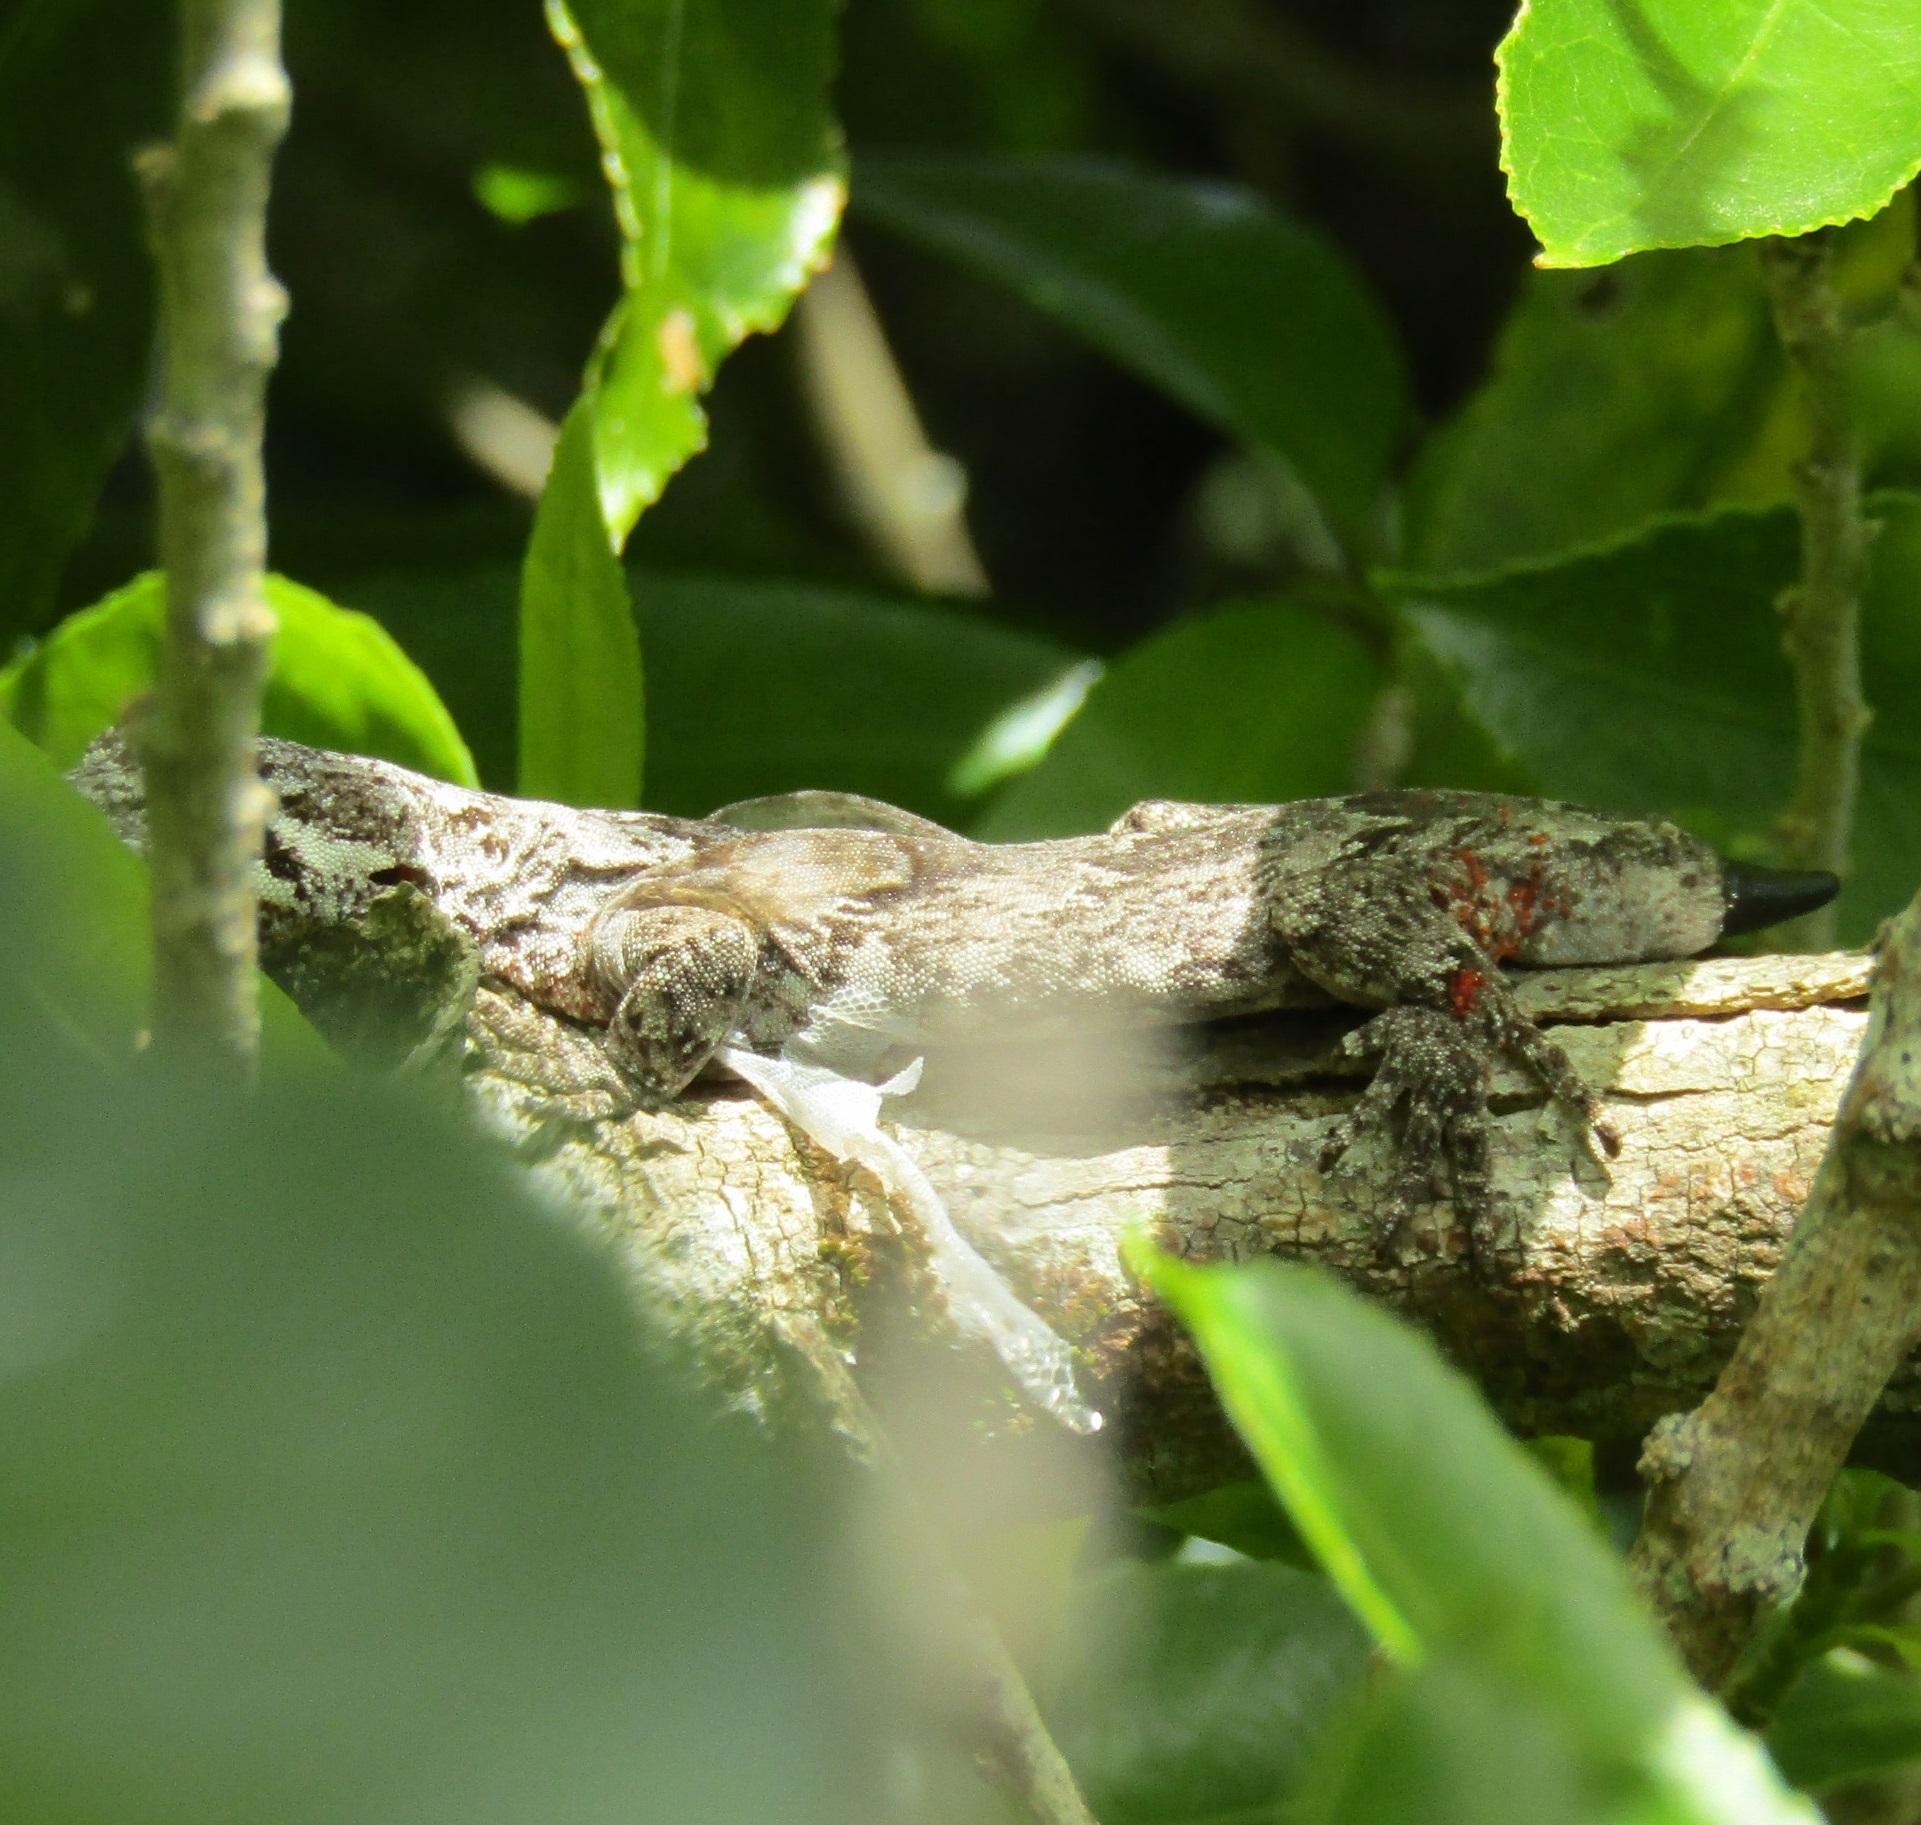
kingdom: Animalia
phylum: Chordata
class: Squamata
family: Diplodactylidae
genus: Mokopirirakau
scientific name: Mokopirirakau
